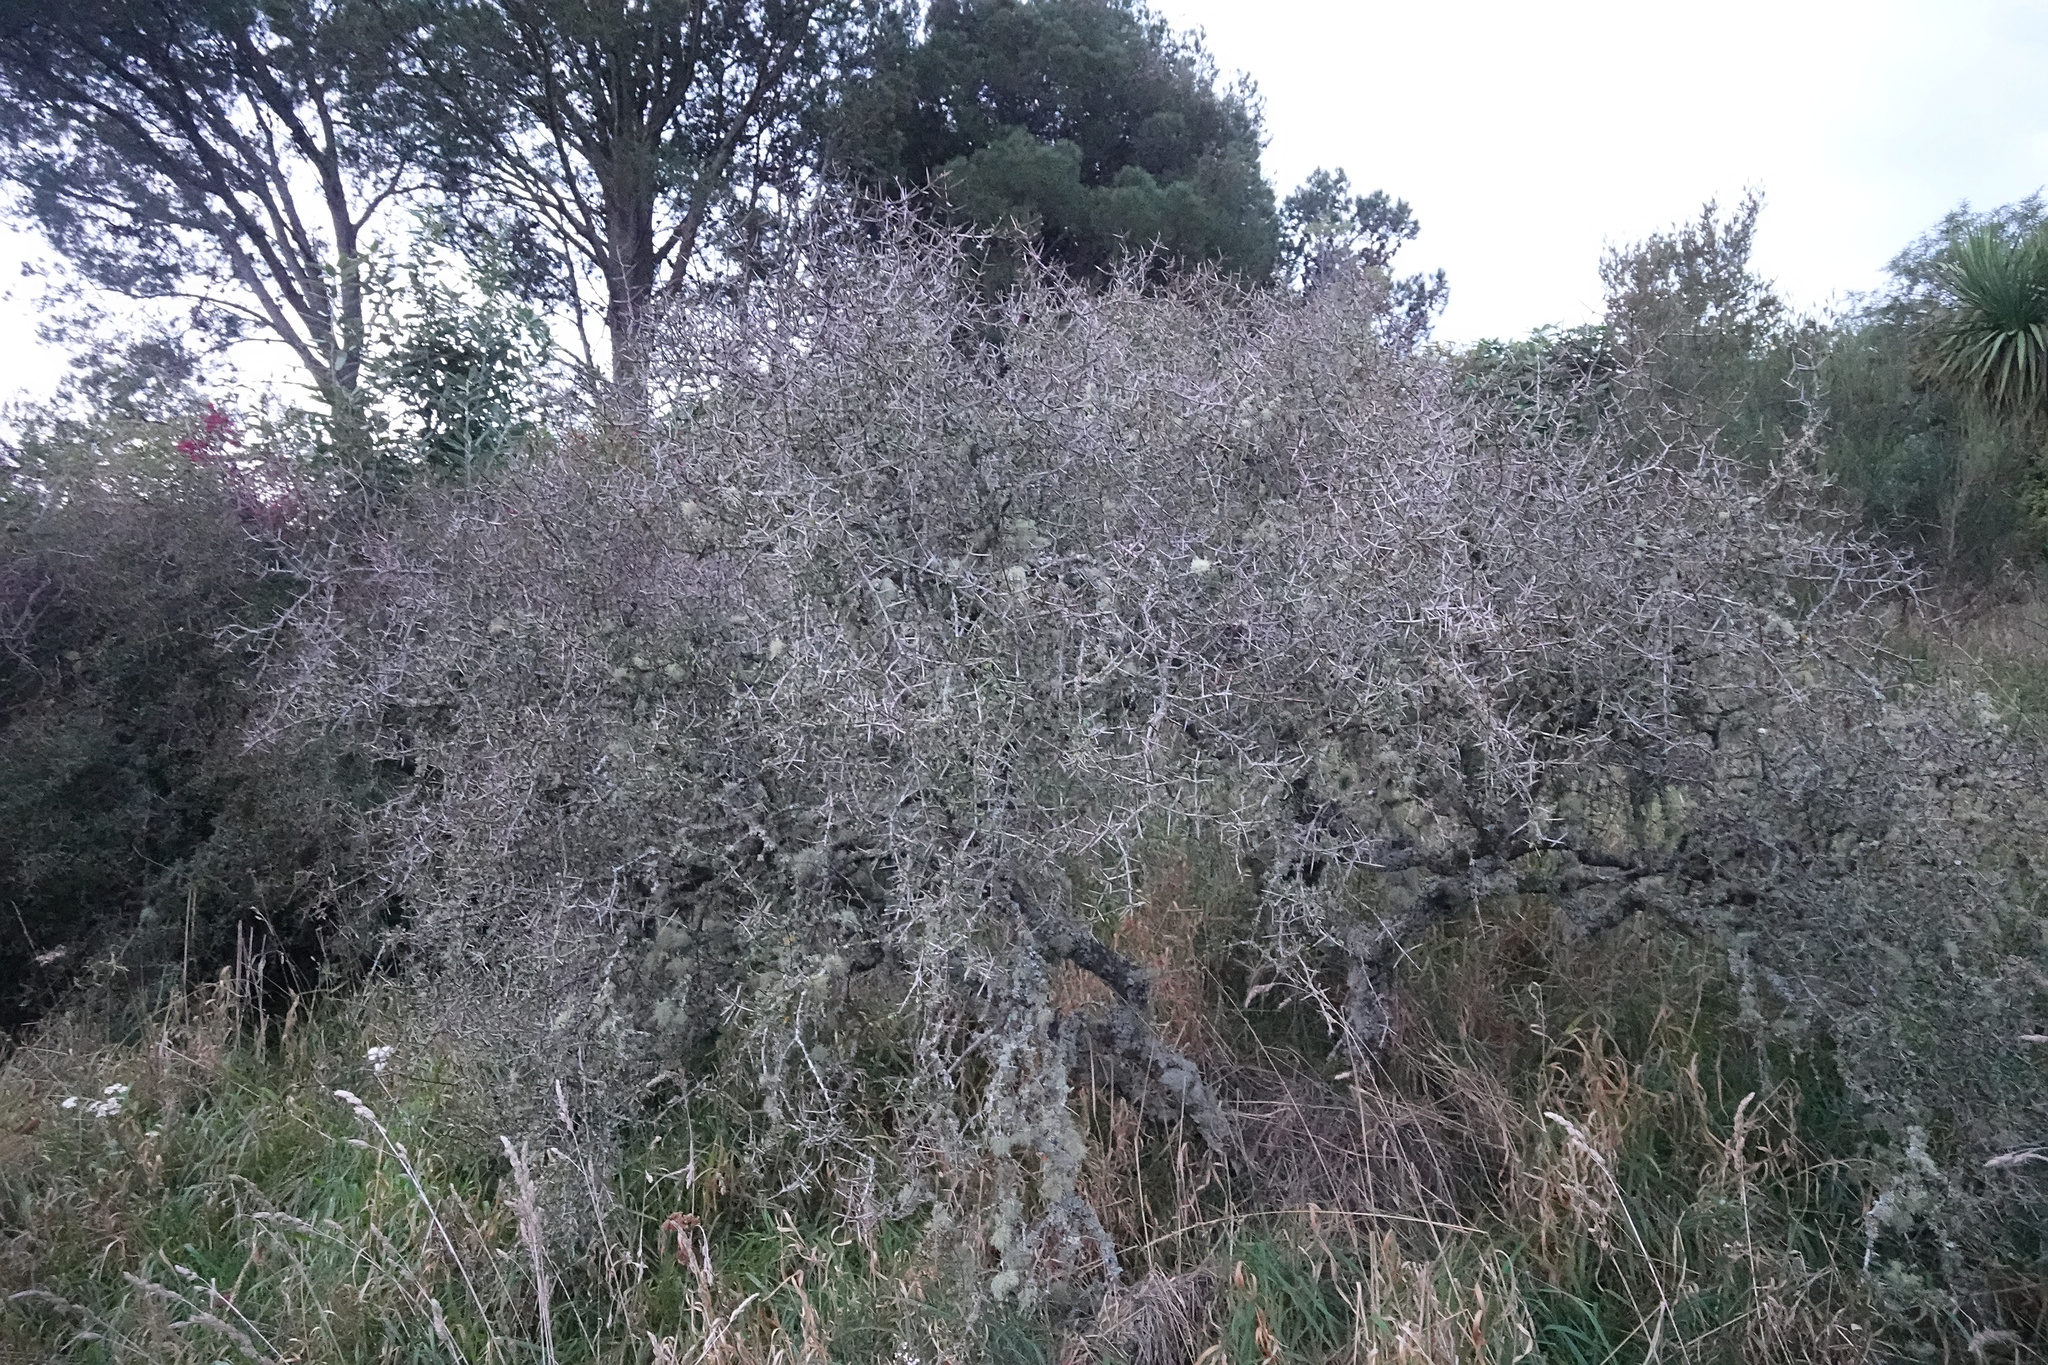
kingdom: Plantae
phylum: Tracheophyta
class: Magnoliopsida
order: Rosales
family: Rhamnaceae
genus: Discaria
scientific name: Discaria toumatou
